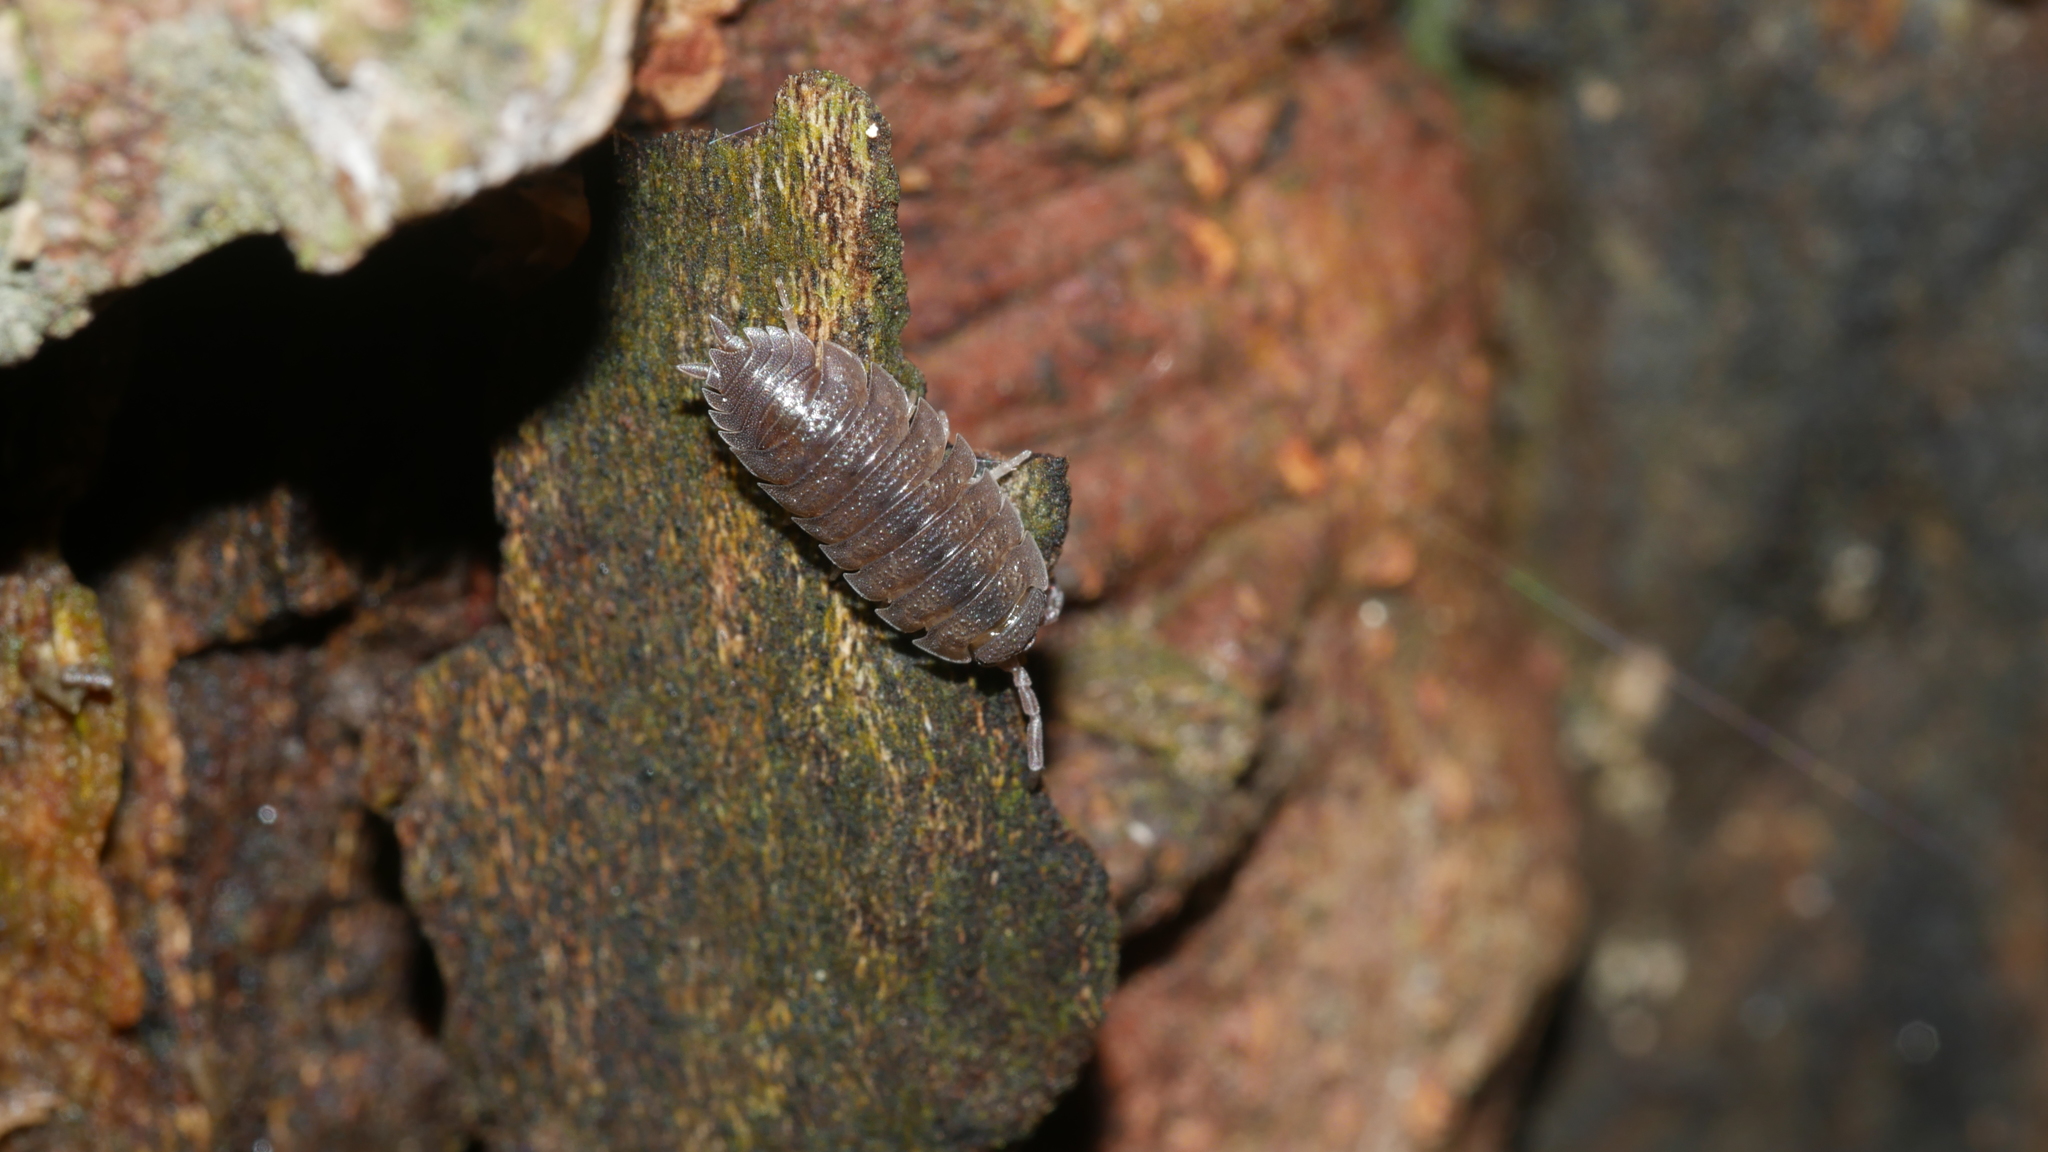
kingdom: Animalia
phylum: Arthropoda
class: Malacostraca
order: Isopoda
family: Porcellionidae
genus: Porcellio
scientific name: Porcellio scaber
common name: Common rough woodlouse
